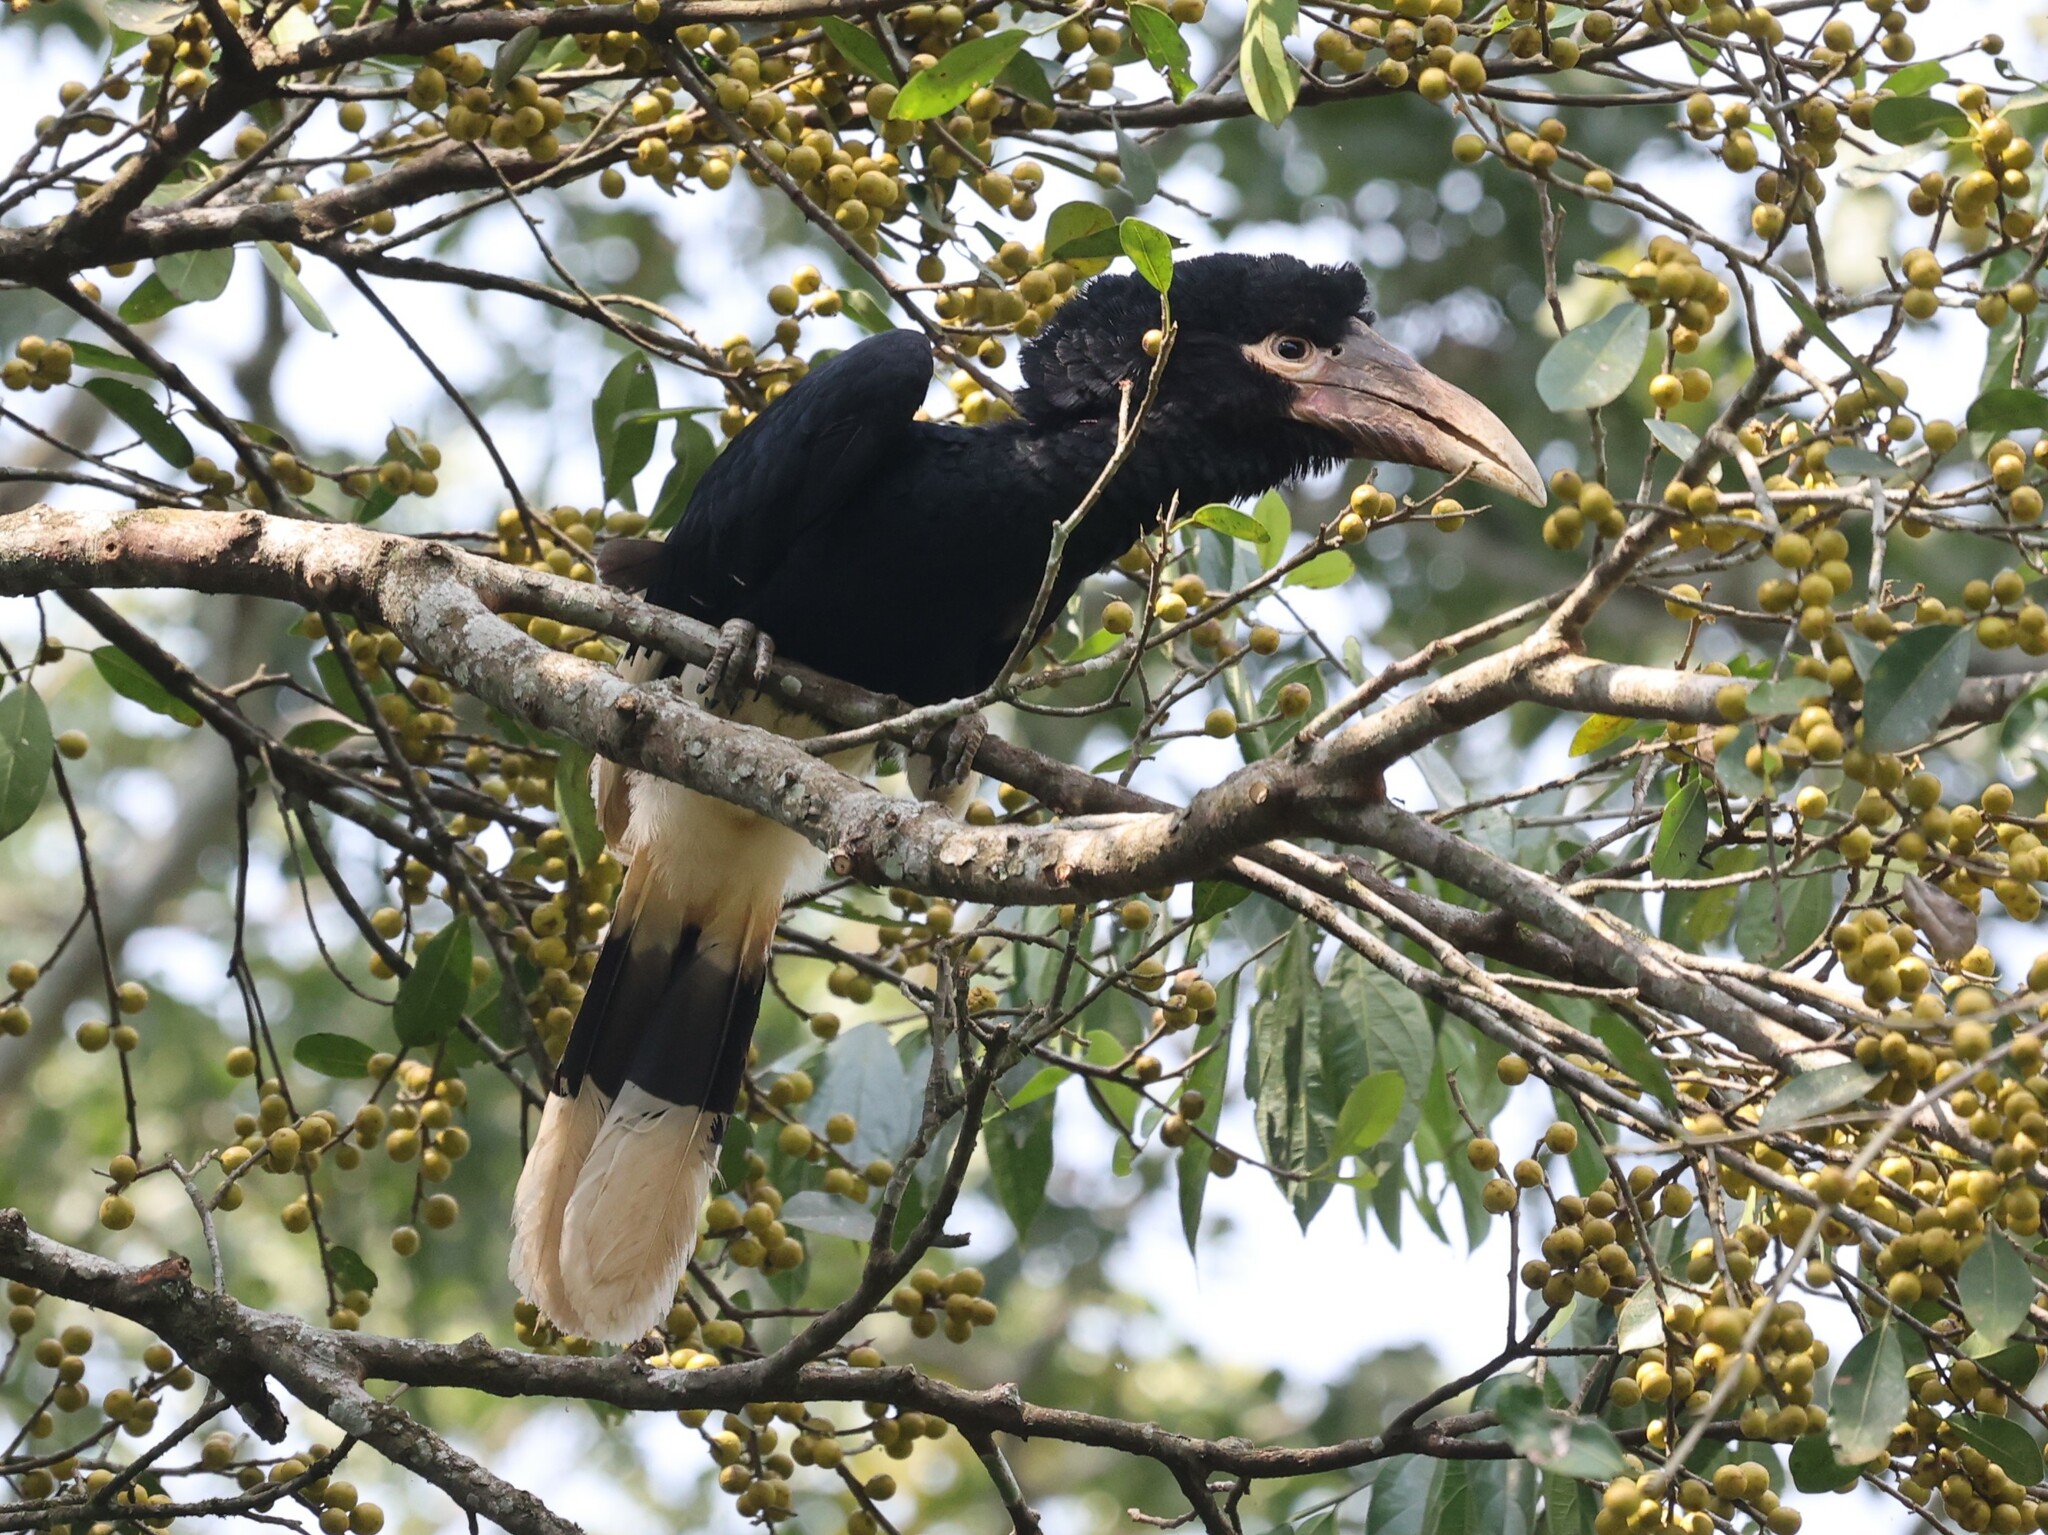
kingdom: Animalia
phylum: Chordata
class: Aves
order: Bucerotiformes
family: Bucerotidae
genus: Bycanistes
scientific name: Bycanistes albotibialis
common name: White-thighed hornbill
